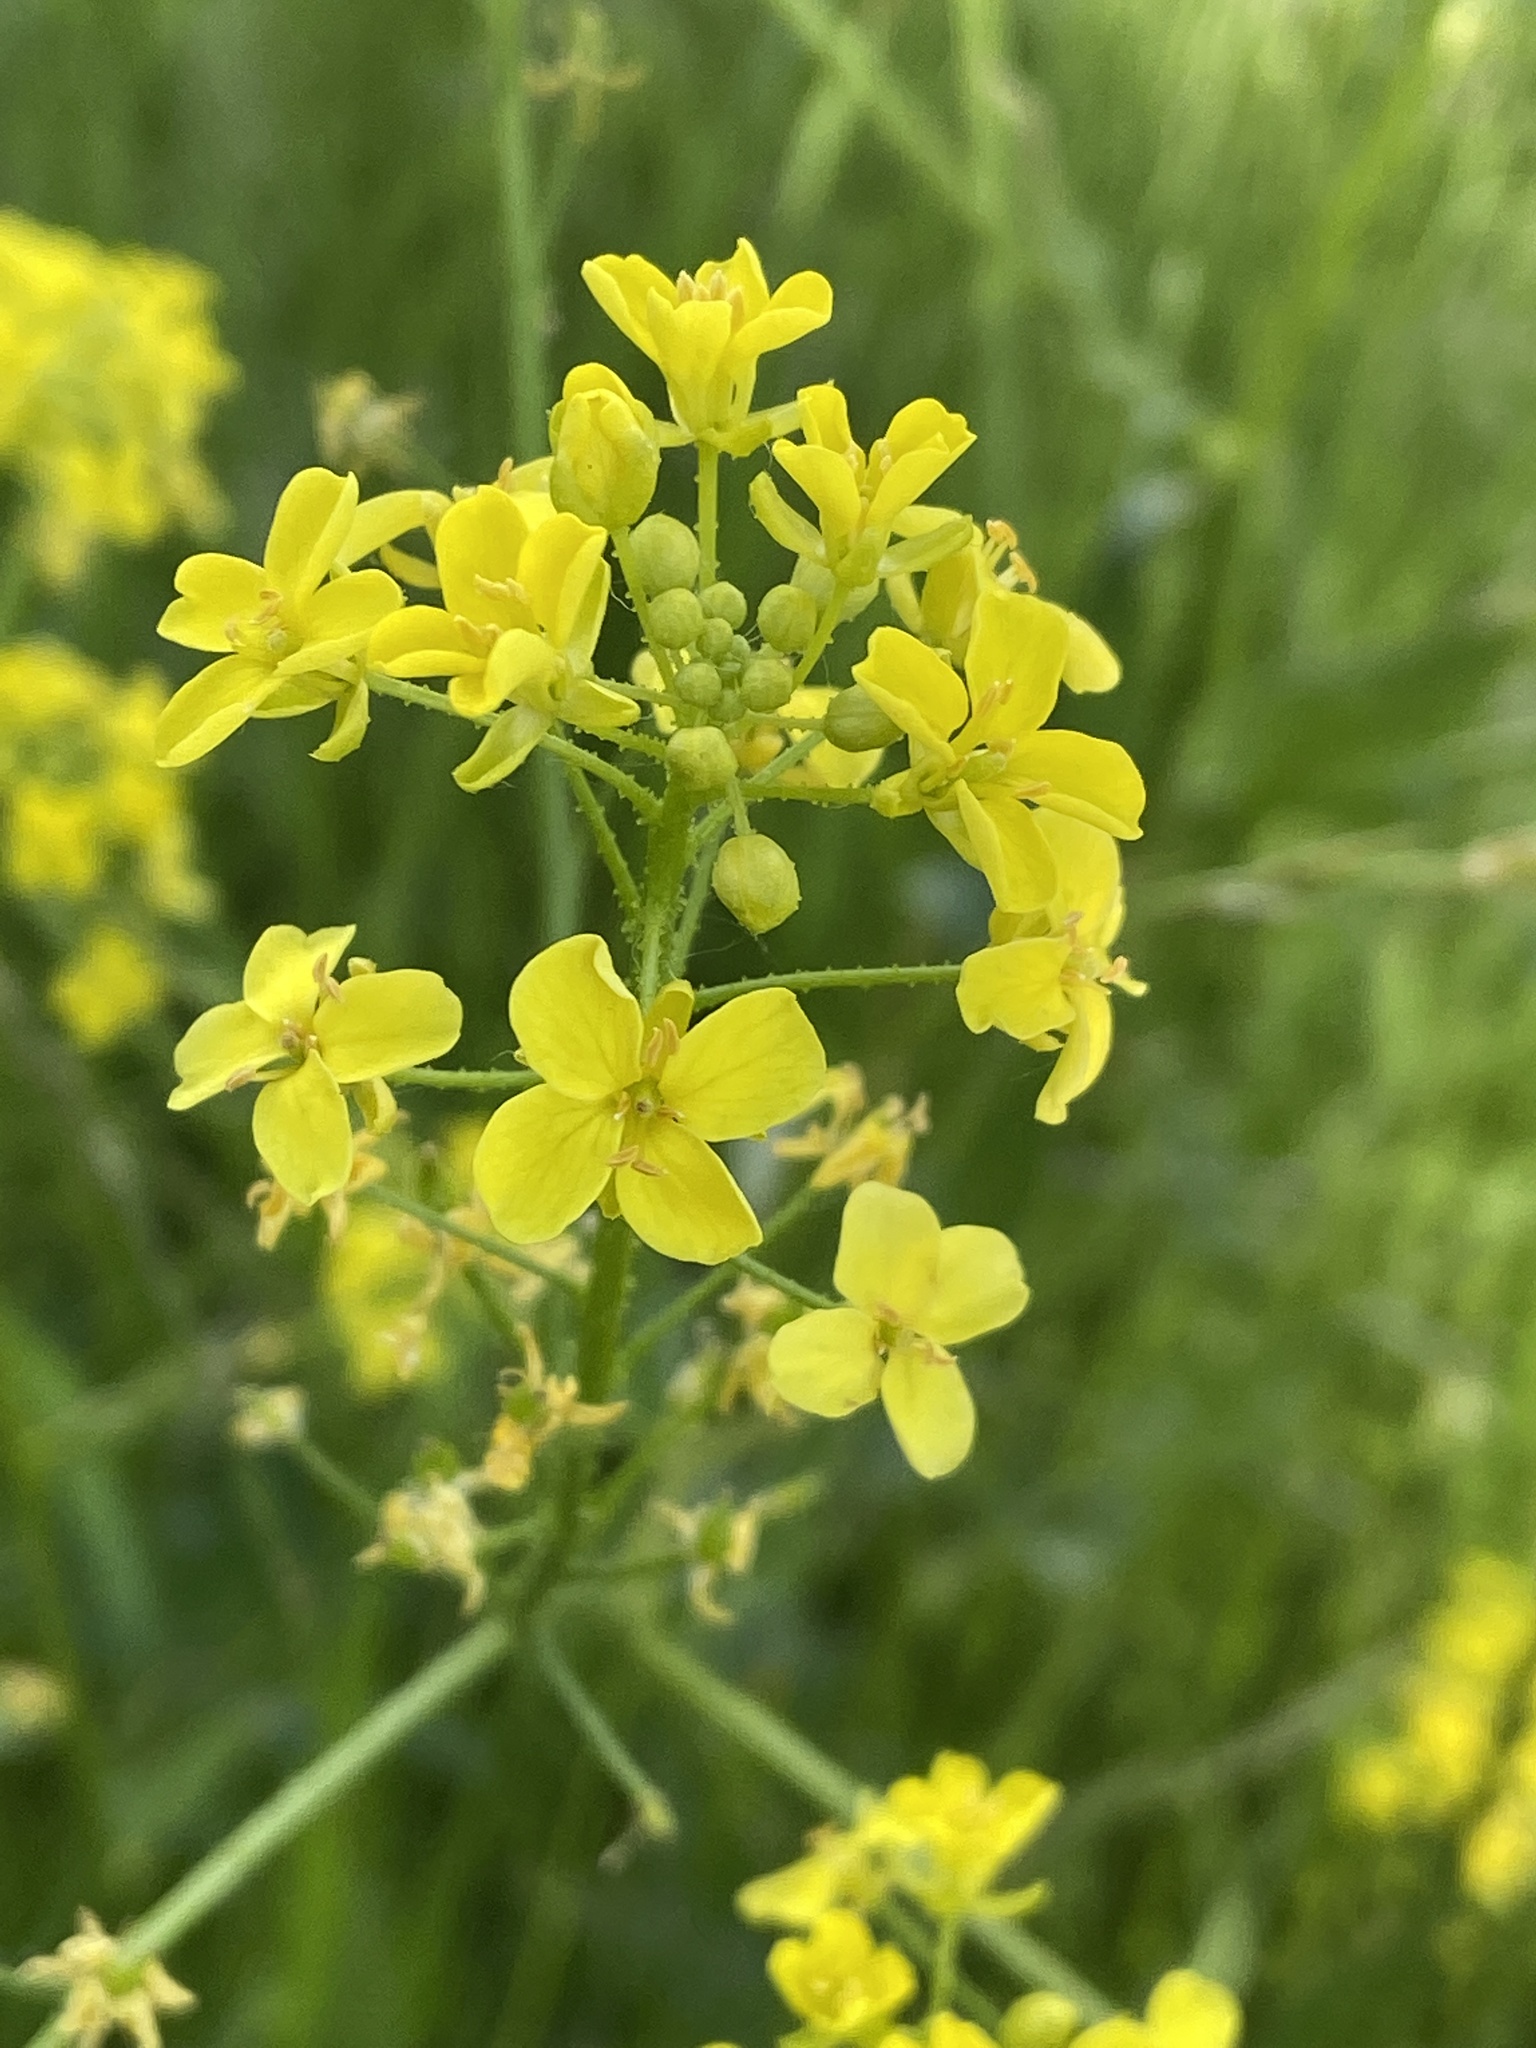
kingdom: Plantae
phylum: Tracheophyta
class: Magnoliopsida
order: Brassicales
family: Brassicaceae
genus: Bunias
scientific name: Bunias orientalis
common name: Warty-cabbage
